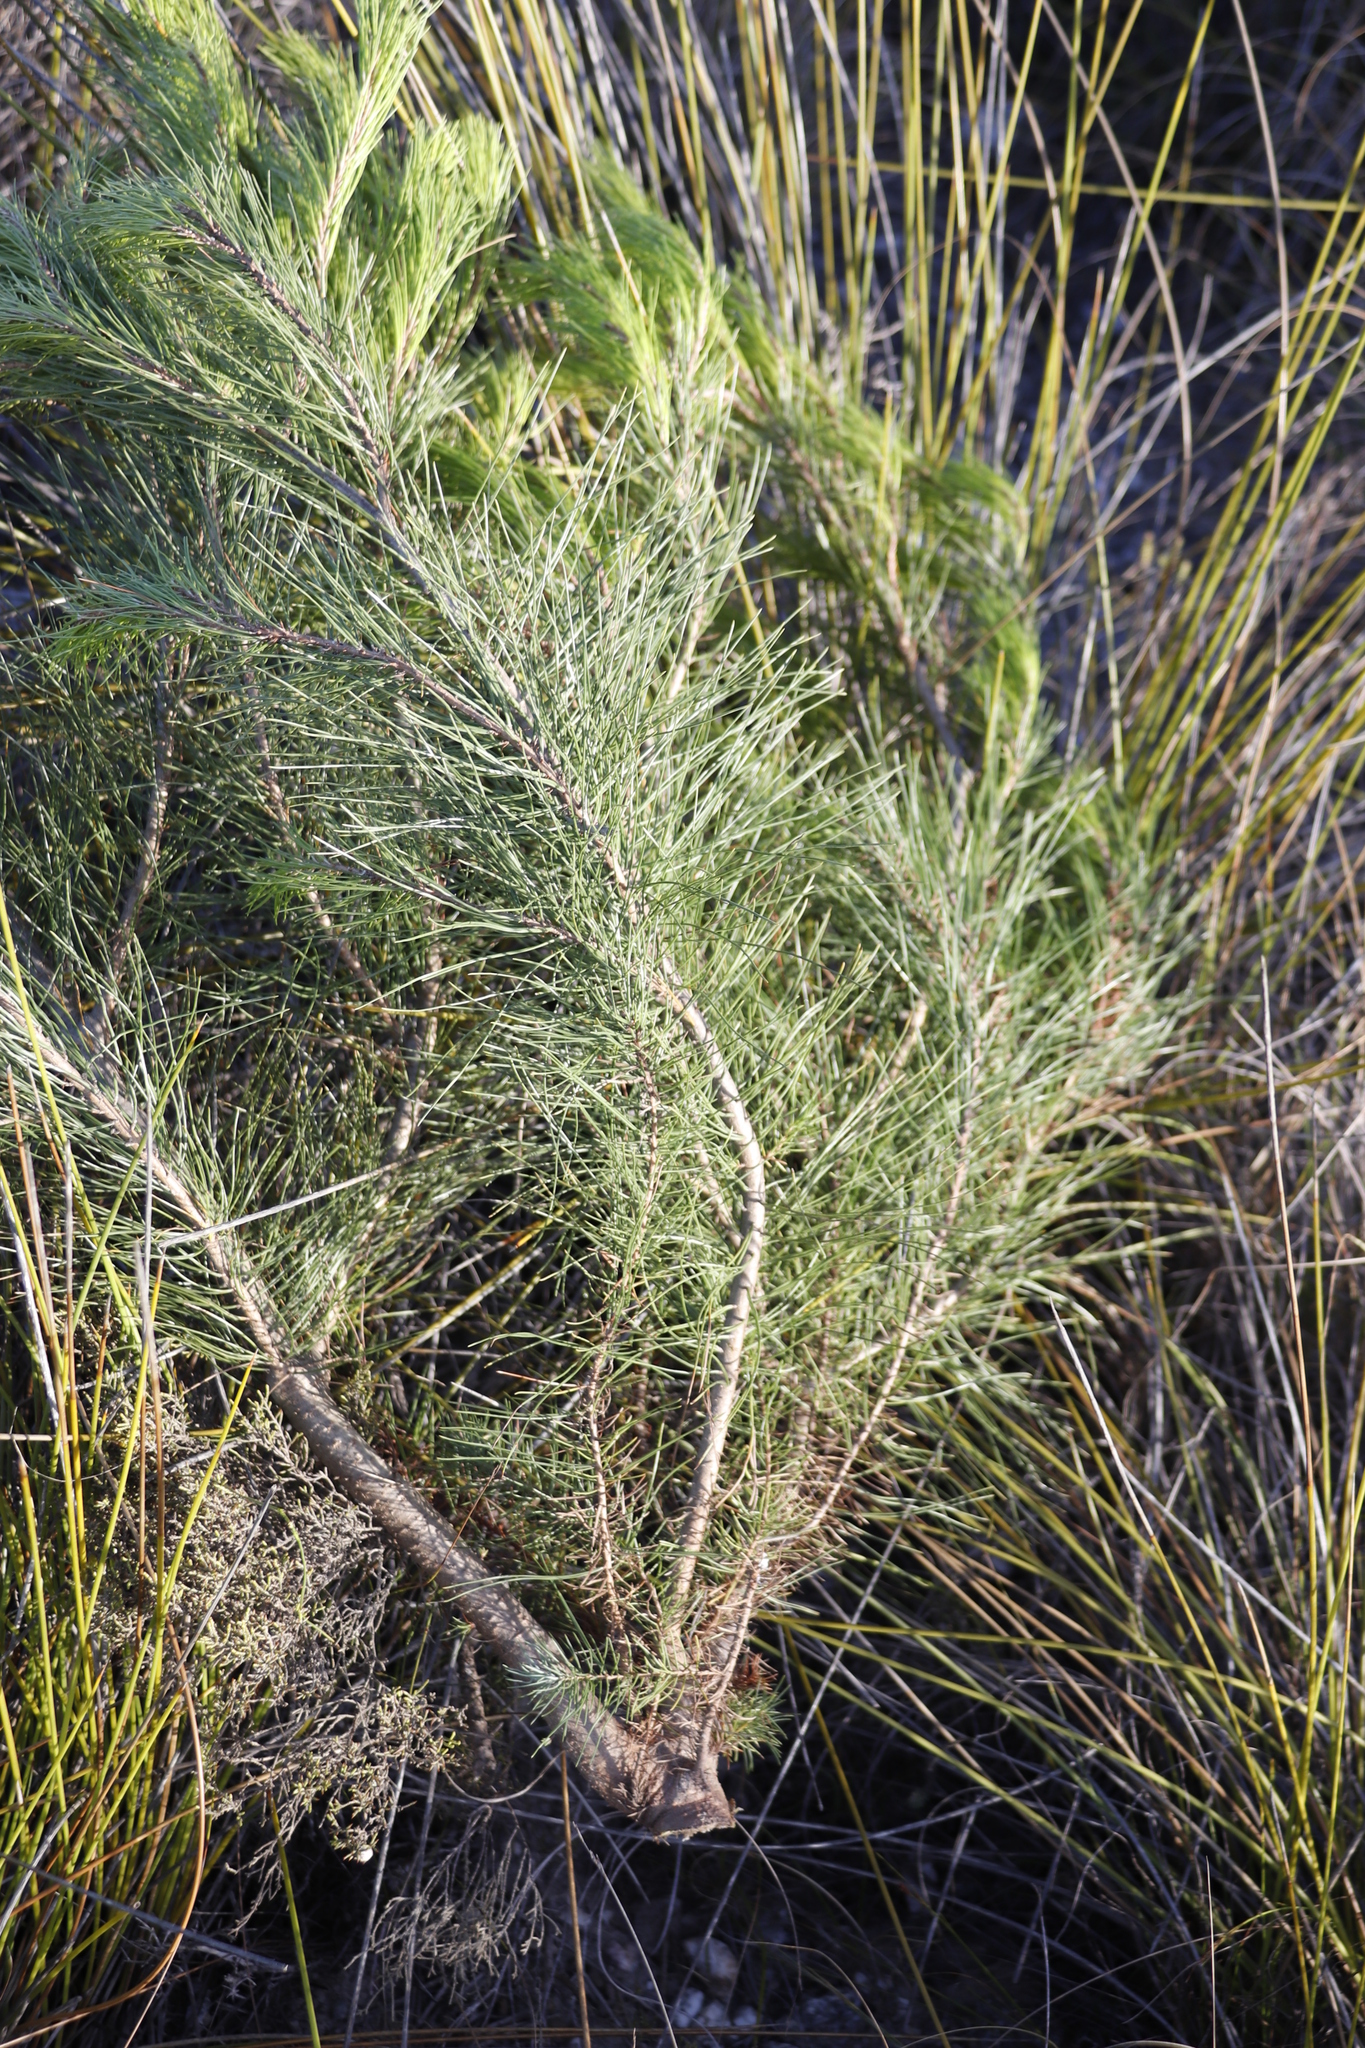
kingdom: Plantae
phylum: Tracheophyta
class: Pinopsida
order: Pinales
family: Pinaceae
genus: Pinus
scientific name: Pinus halepensis
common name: Aleppo pine
